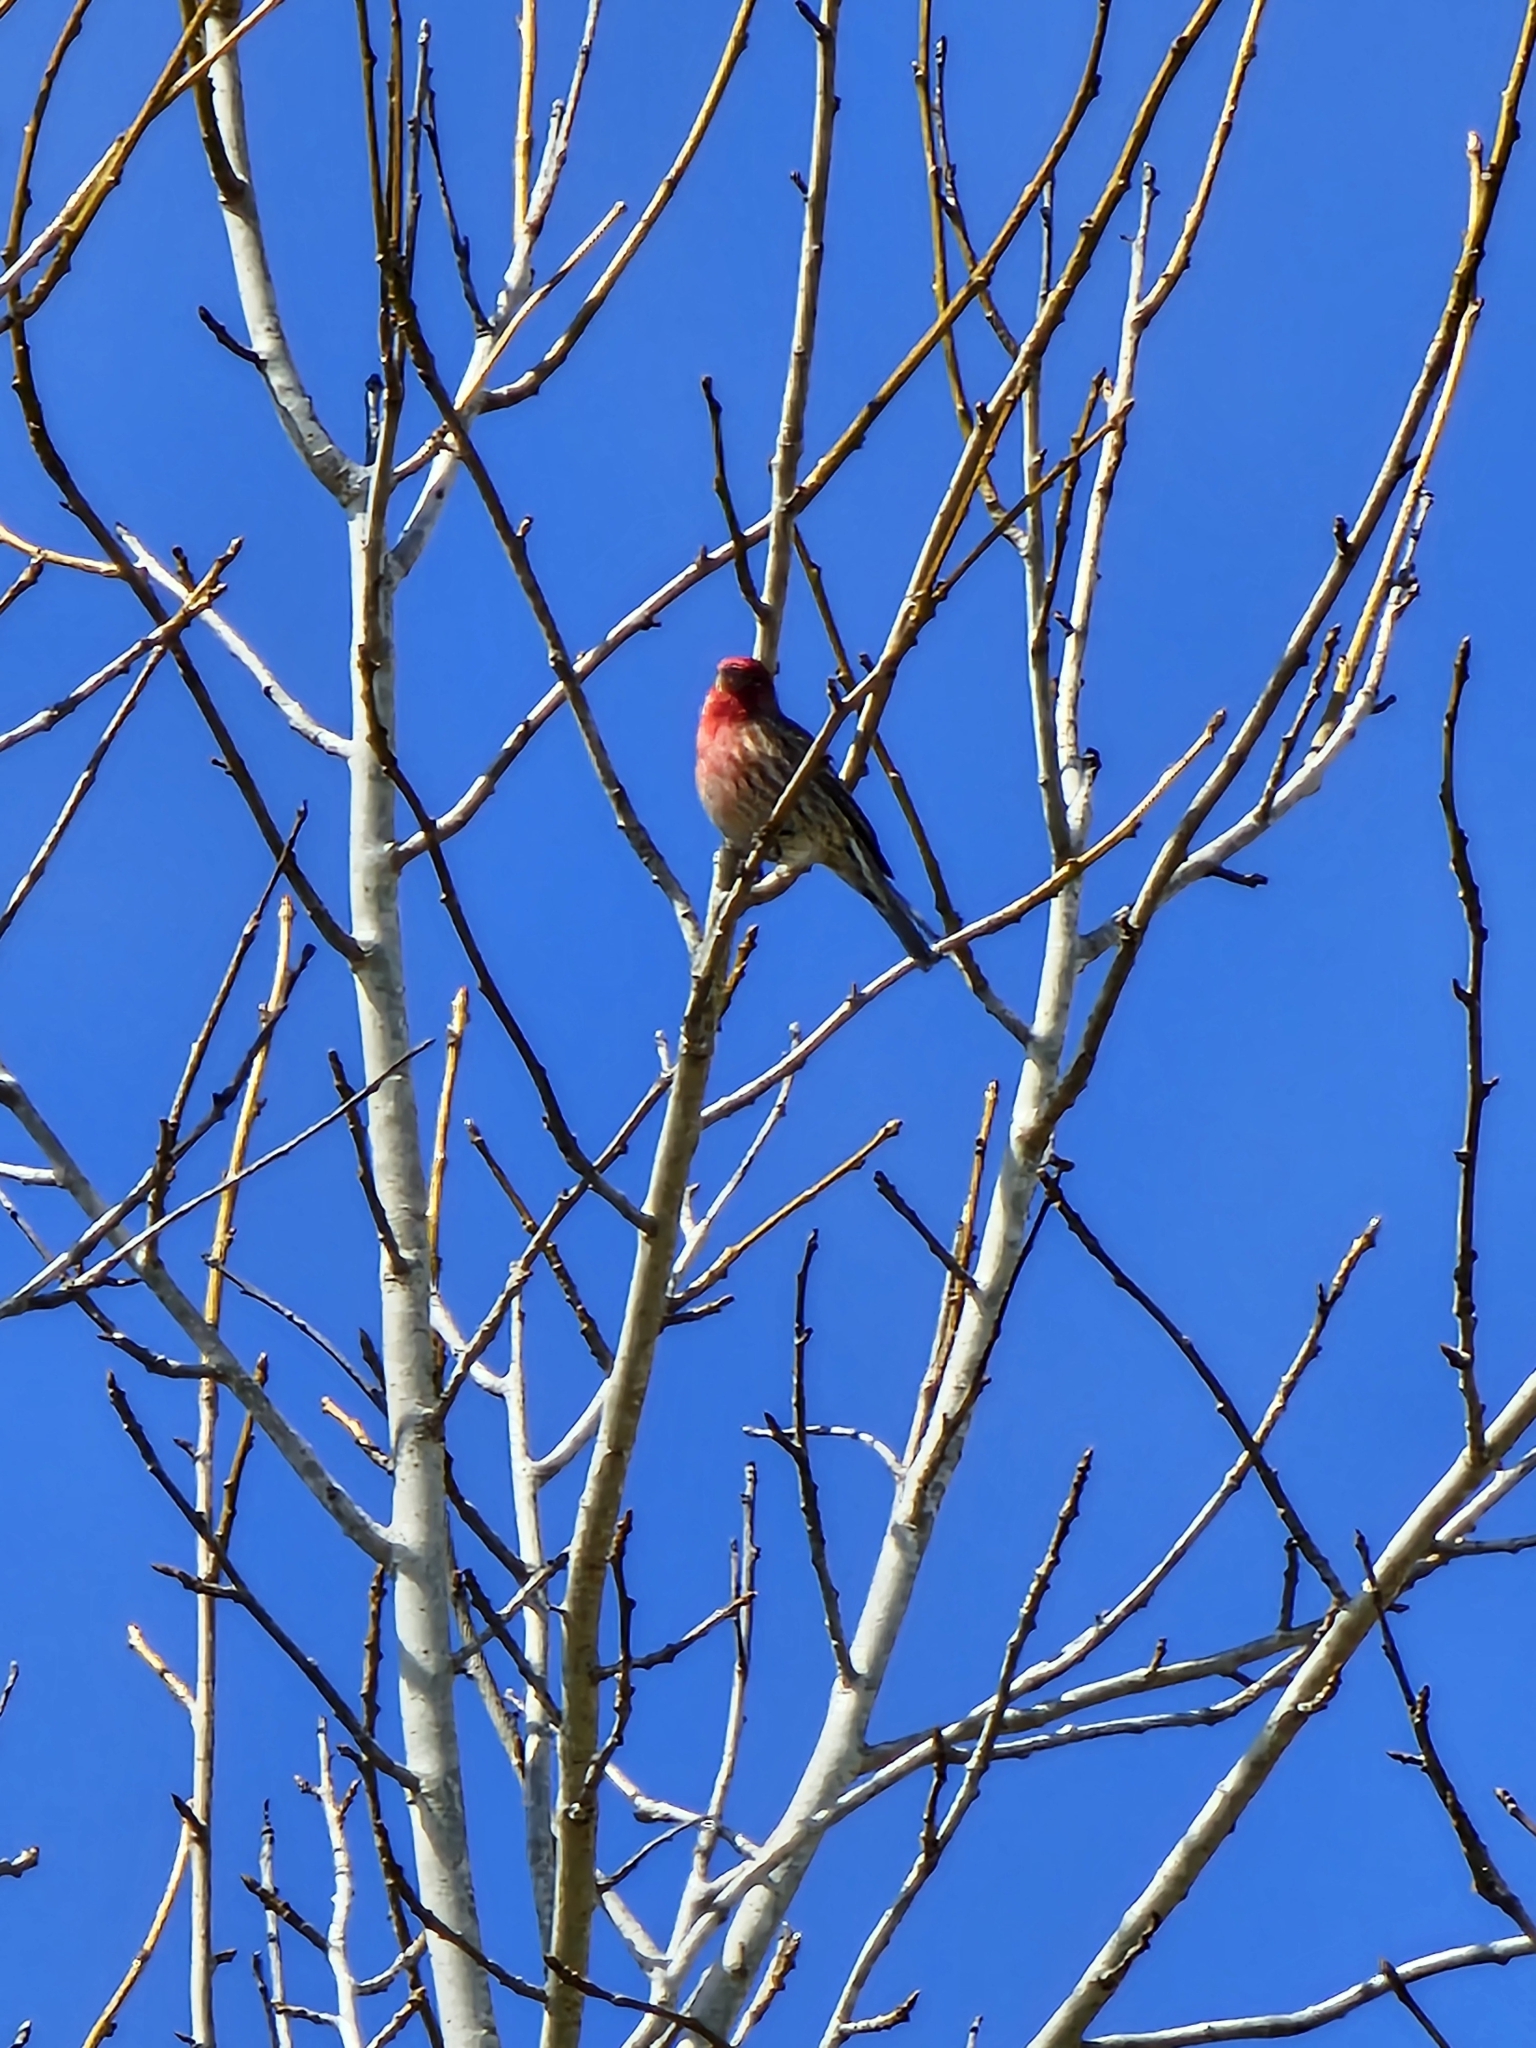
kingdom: Animalia
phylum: Chordata
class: Aves
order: Passeriformes
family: Fringillidae
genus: Haemorhous
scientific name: Haemorhous mexicanus
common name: House finch
